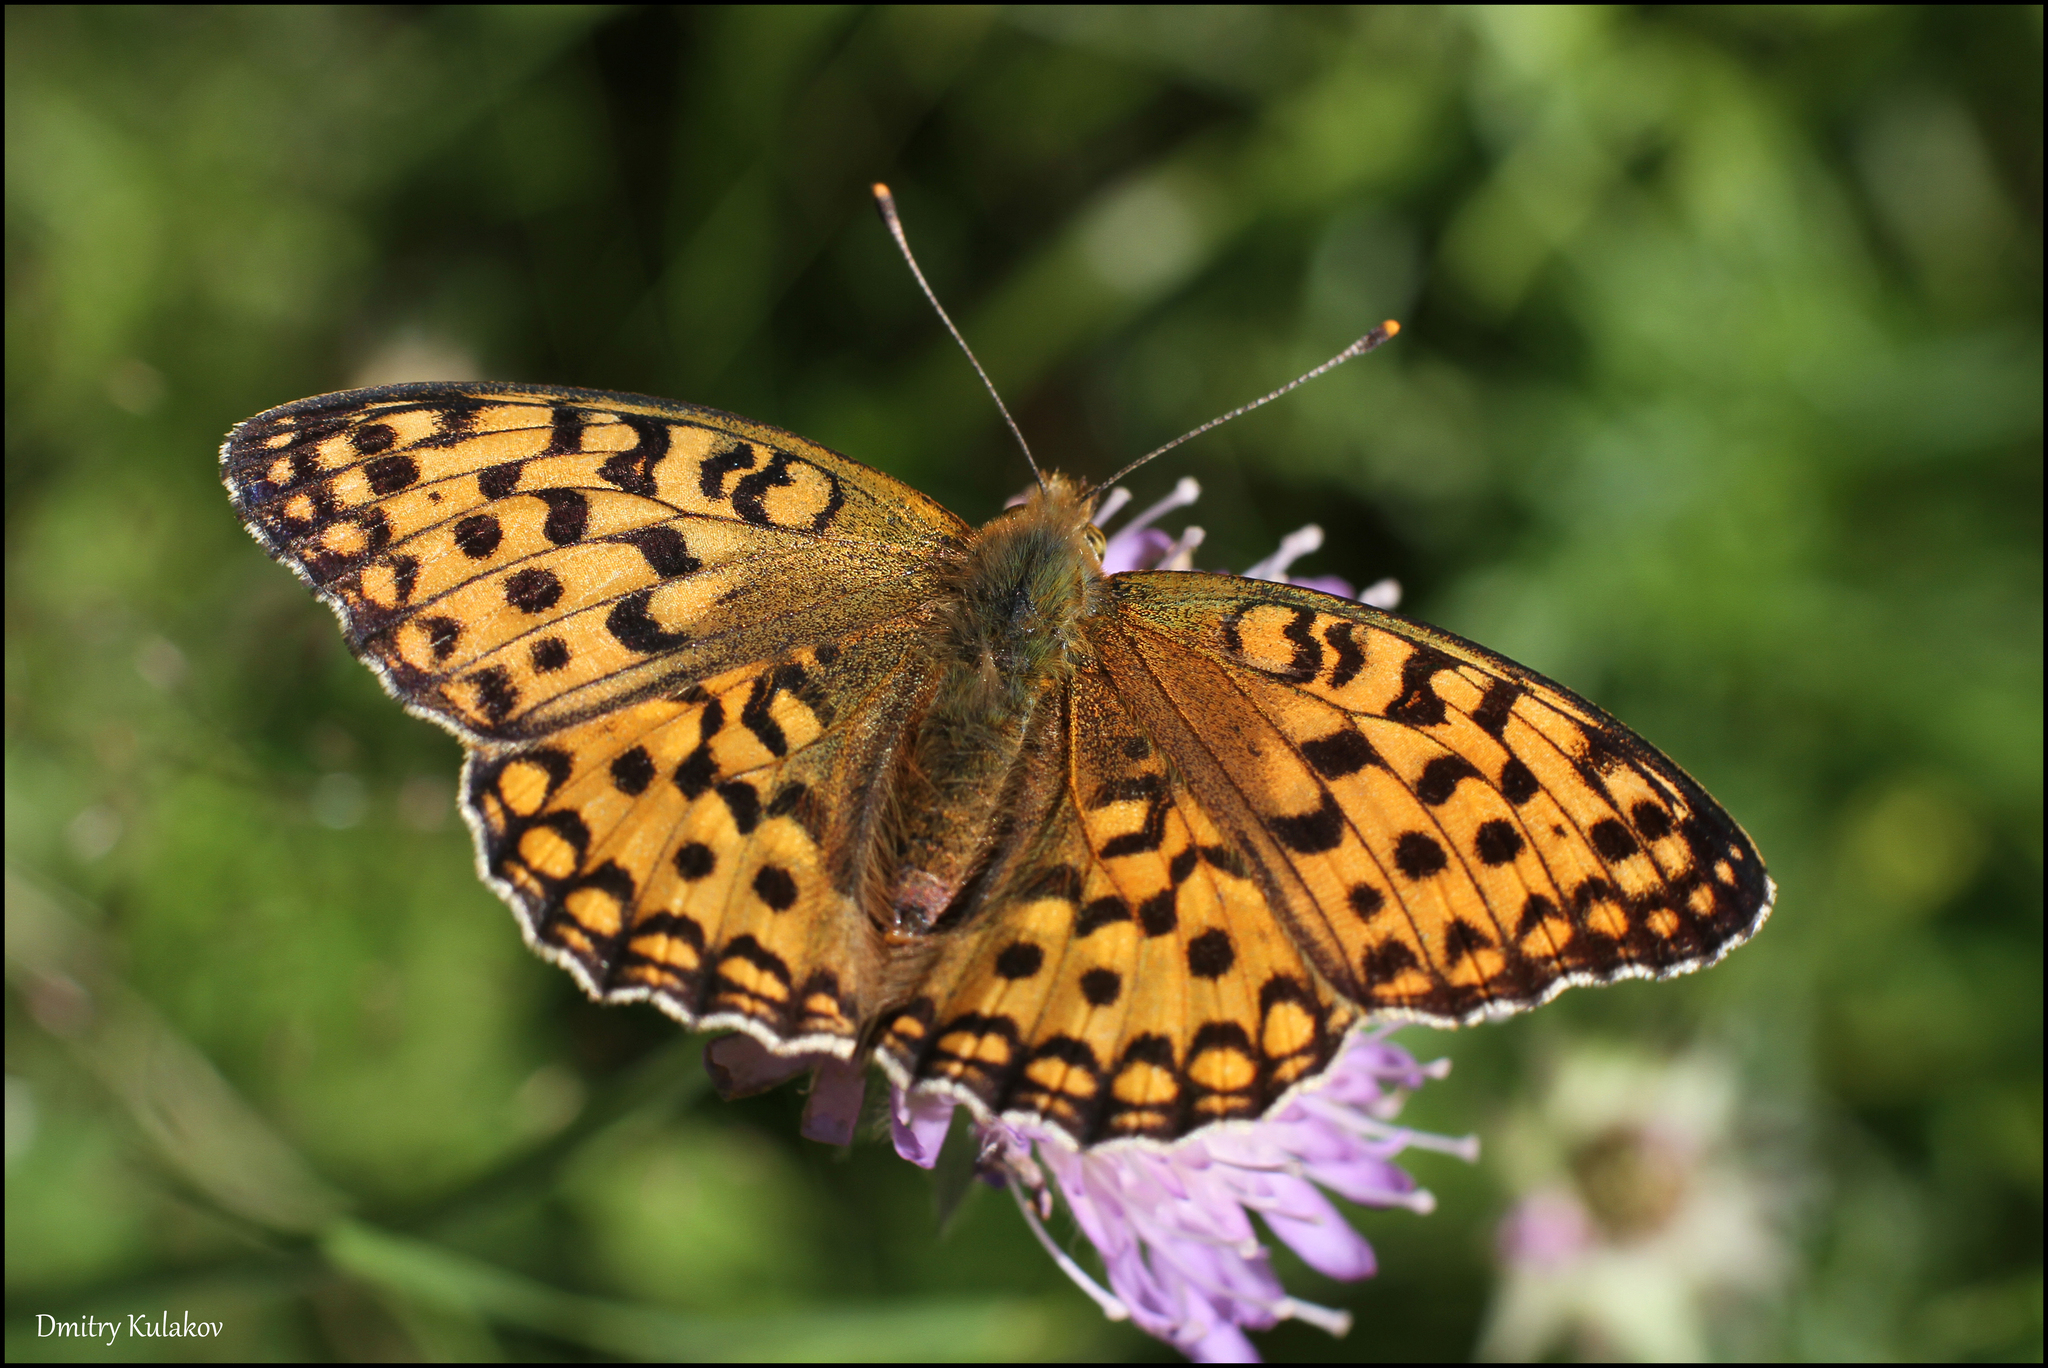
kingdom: Animalia
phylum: Arthropoda
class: Insecta
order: Lepidoptera
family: Nymphalidae
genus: Fabriciana
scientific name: Fabriciana adippe
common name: High brown fritillary
